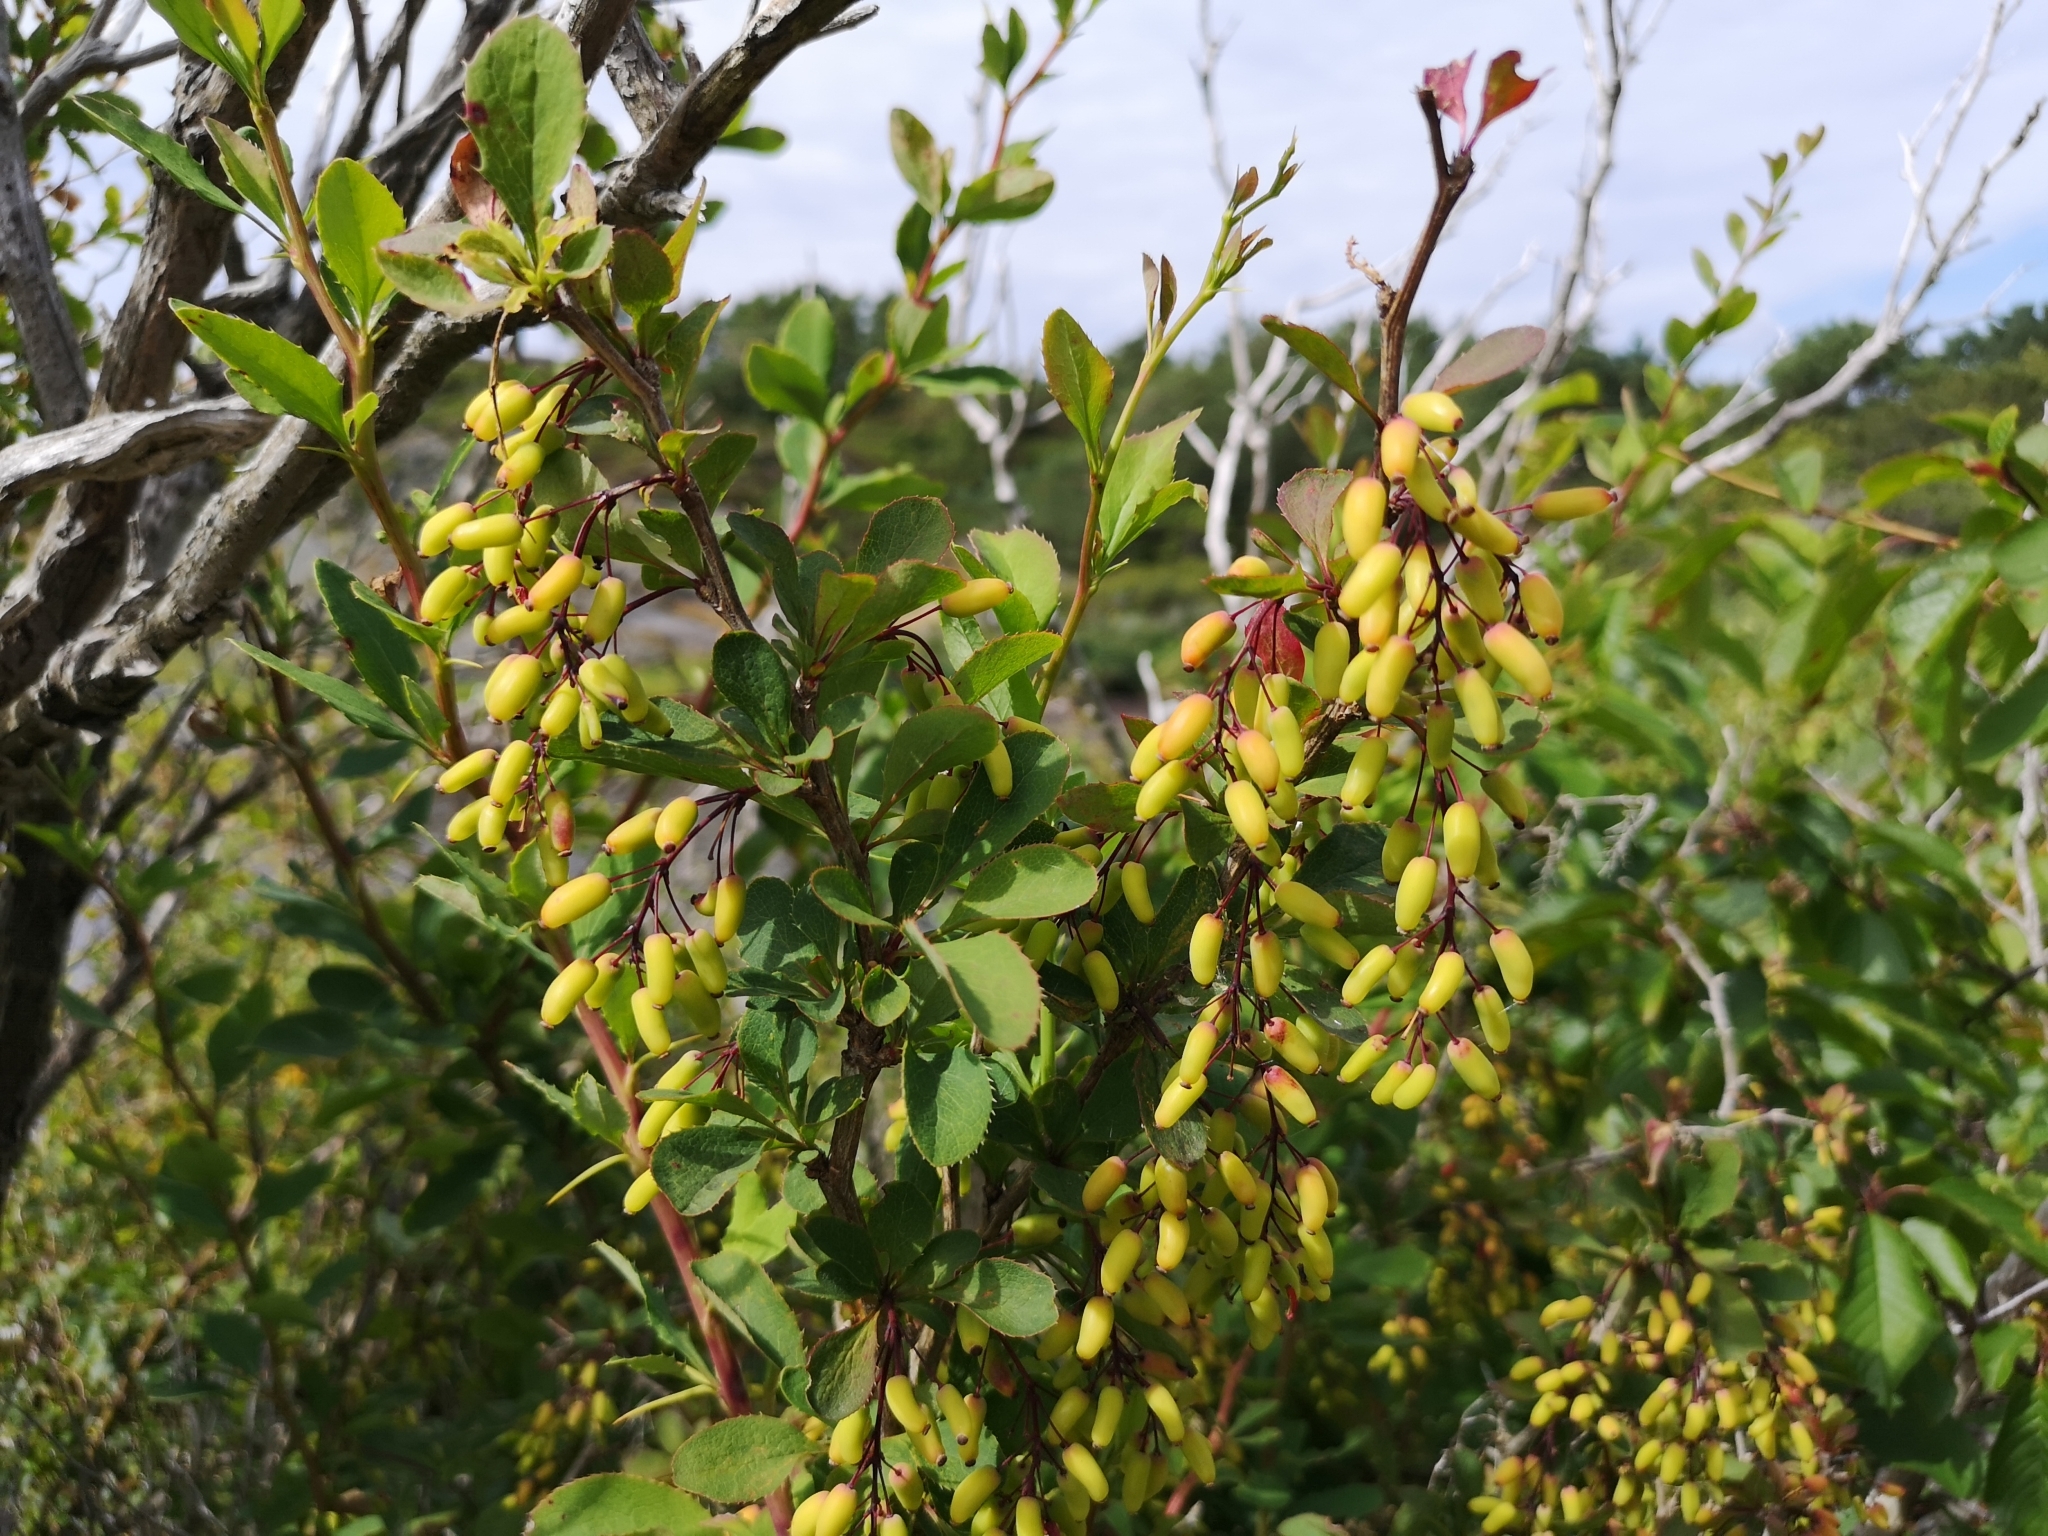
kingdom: Plantae
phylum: Tracheophyta
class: Magnoliopsida
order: Ranunculales
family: Berberidaceae
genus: Berberis
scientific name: Berberis vulgaris
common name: Barberry
